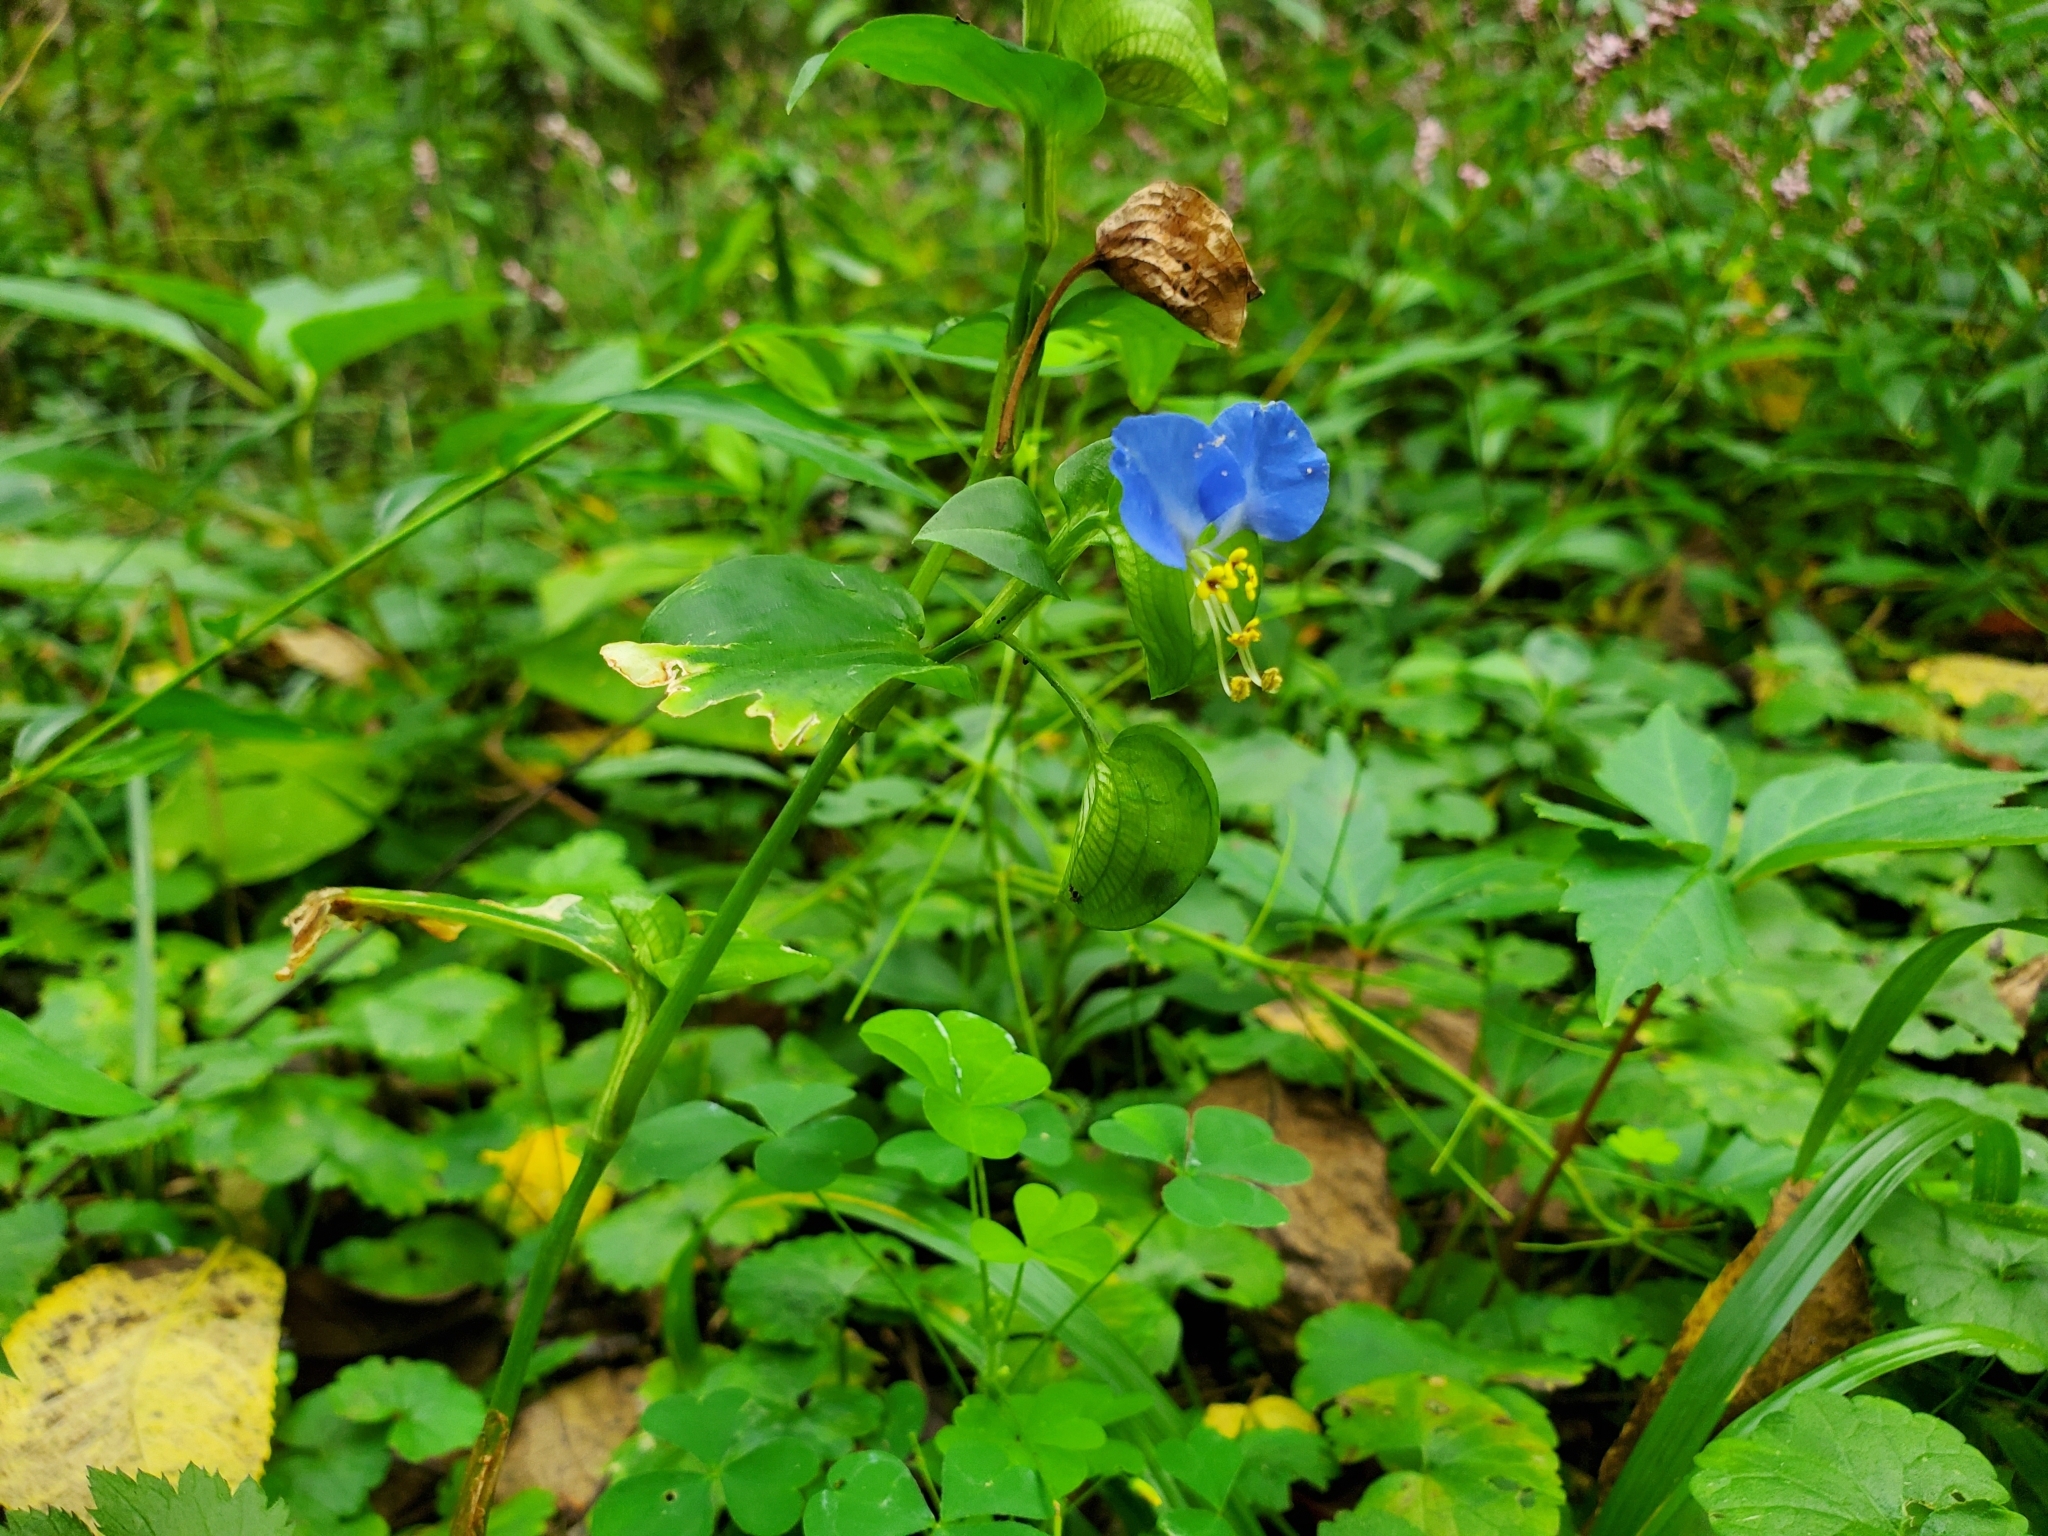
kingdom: Plantae
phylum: Tracheophyta
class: Liliopsida
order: Commelinales
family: Commelinaceae
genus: Commelina
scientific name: Commelina communis
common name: Asiatic dayflower
